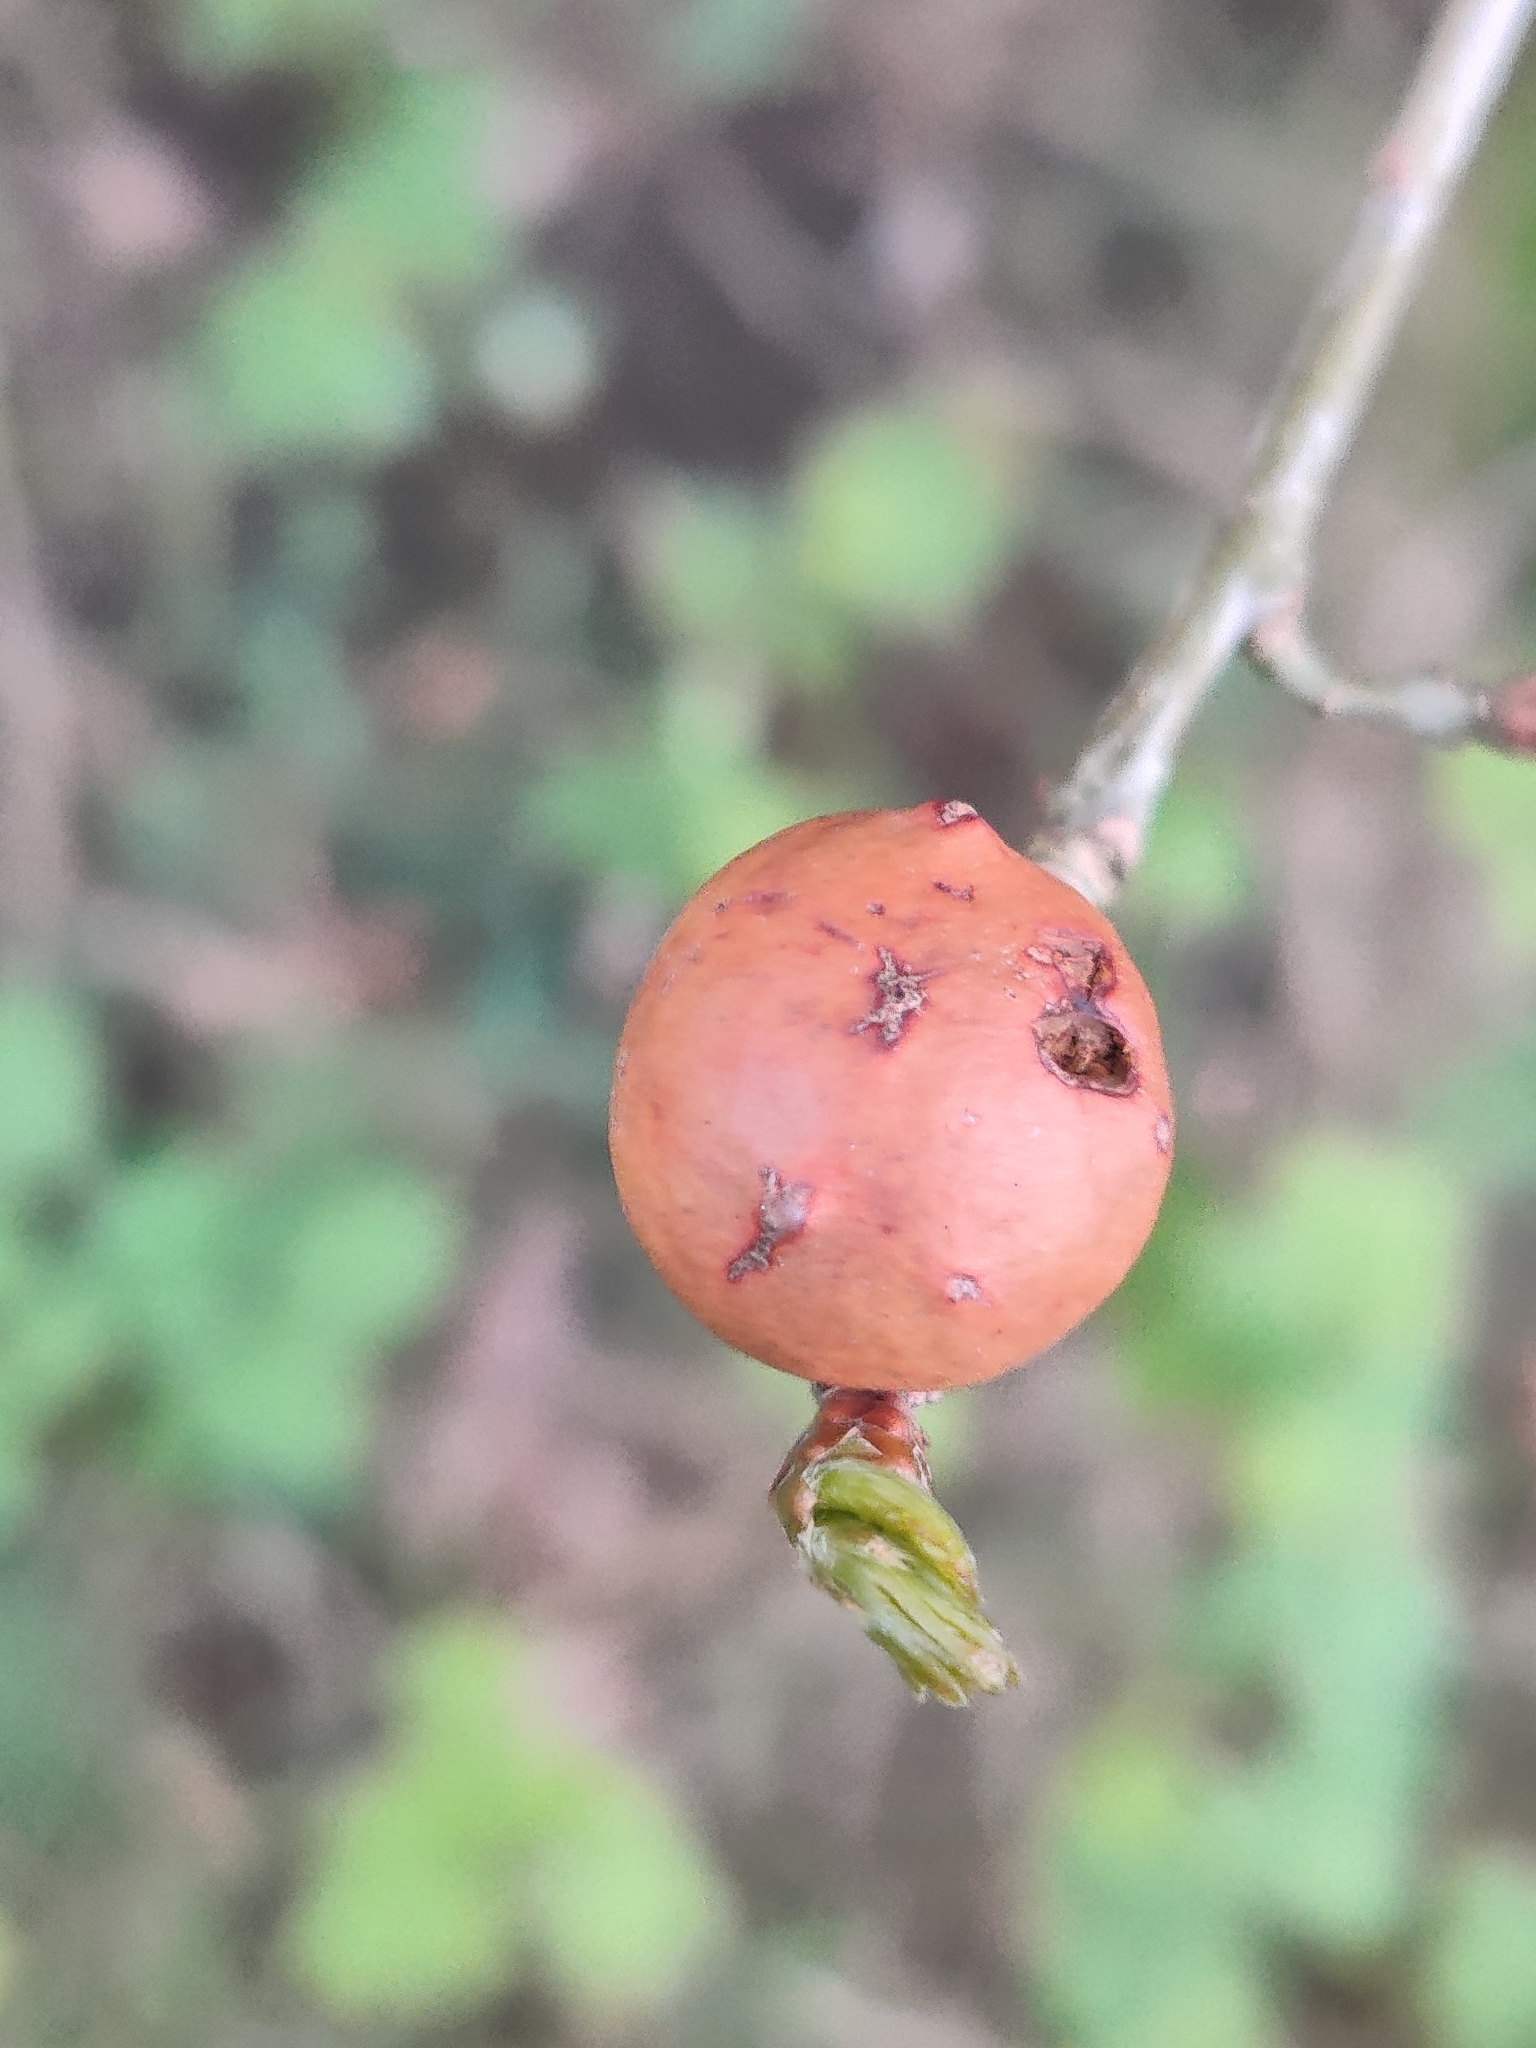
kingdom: Animalia
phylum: Arthropoda
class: Insecta
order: Hymenoptera
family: Cynipidae
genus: Andricus
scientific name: Andricus kollari
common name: Marble gall
